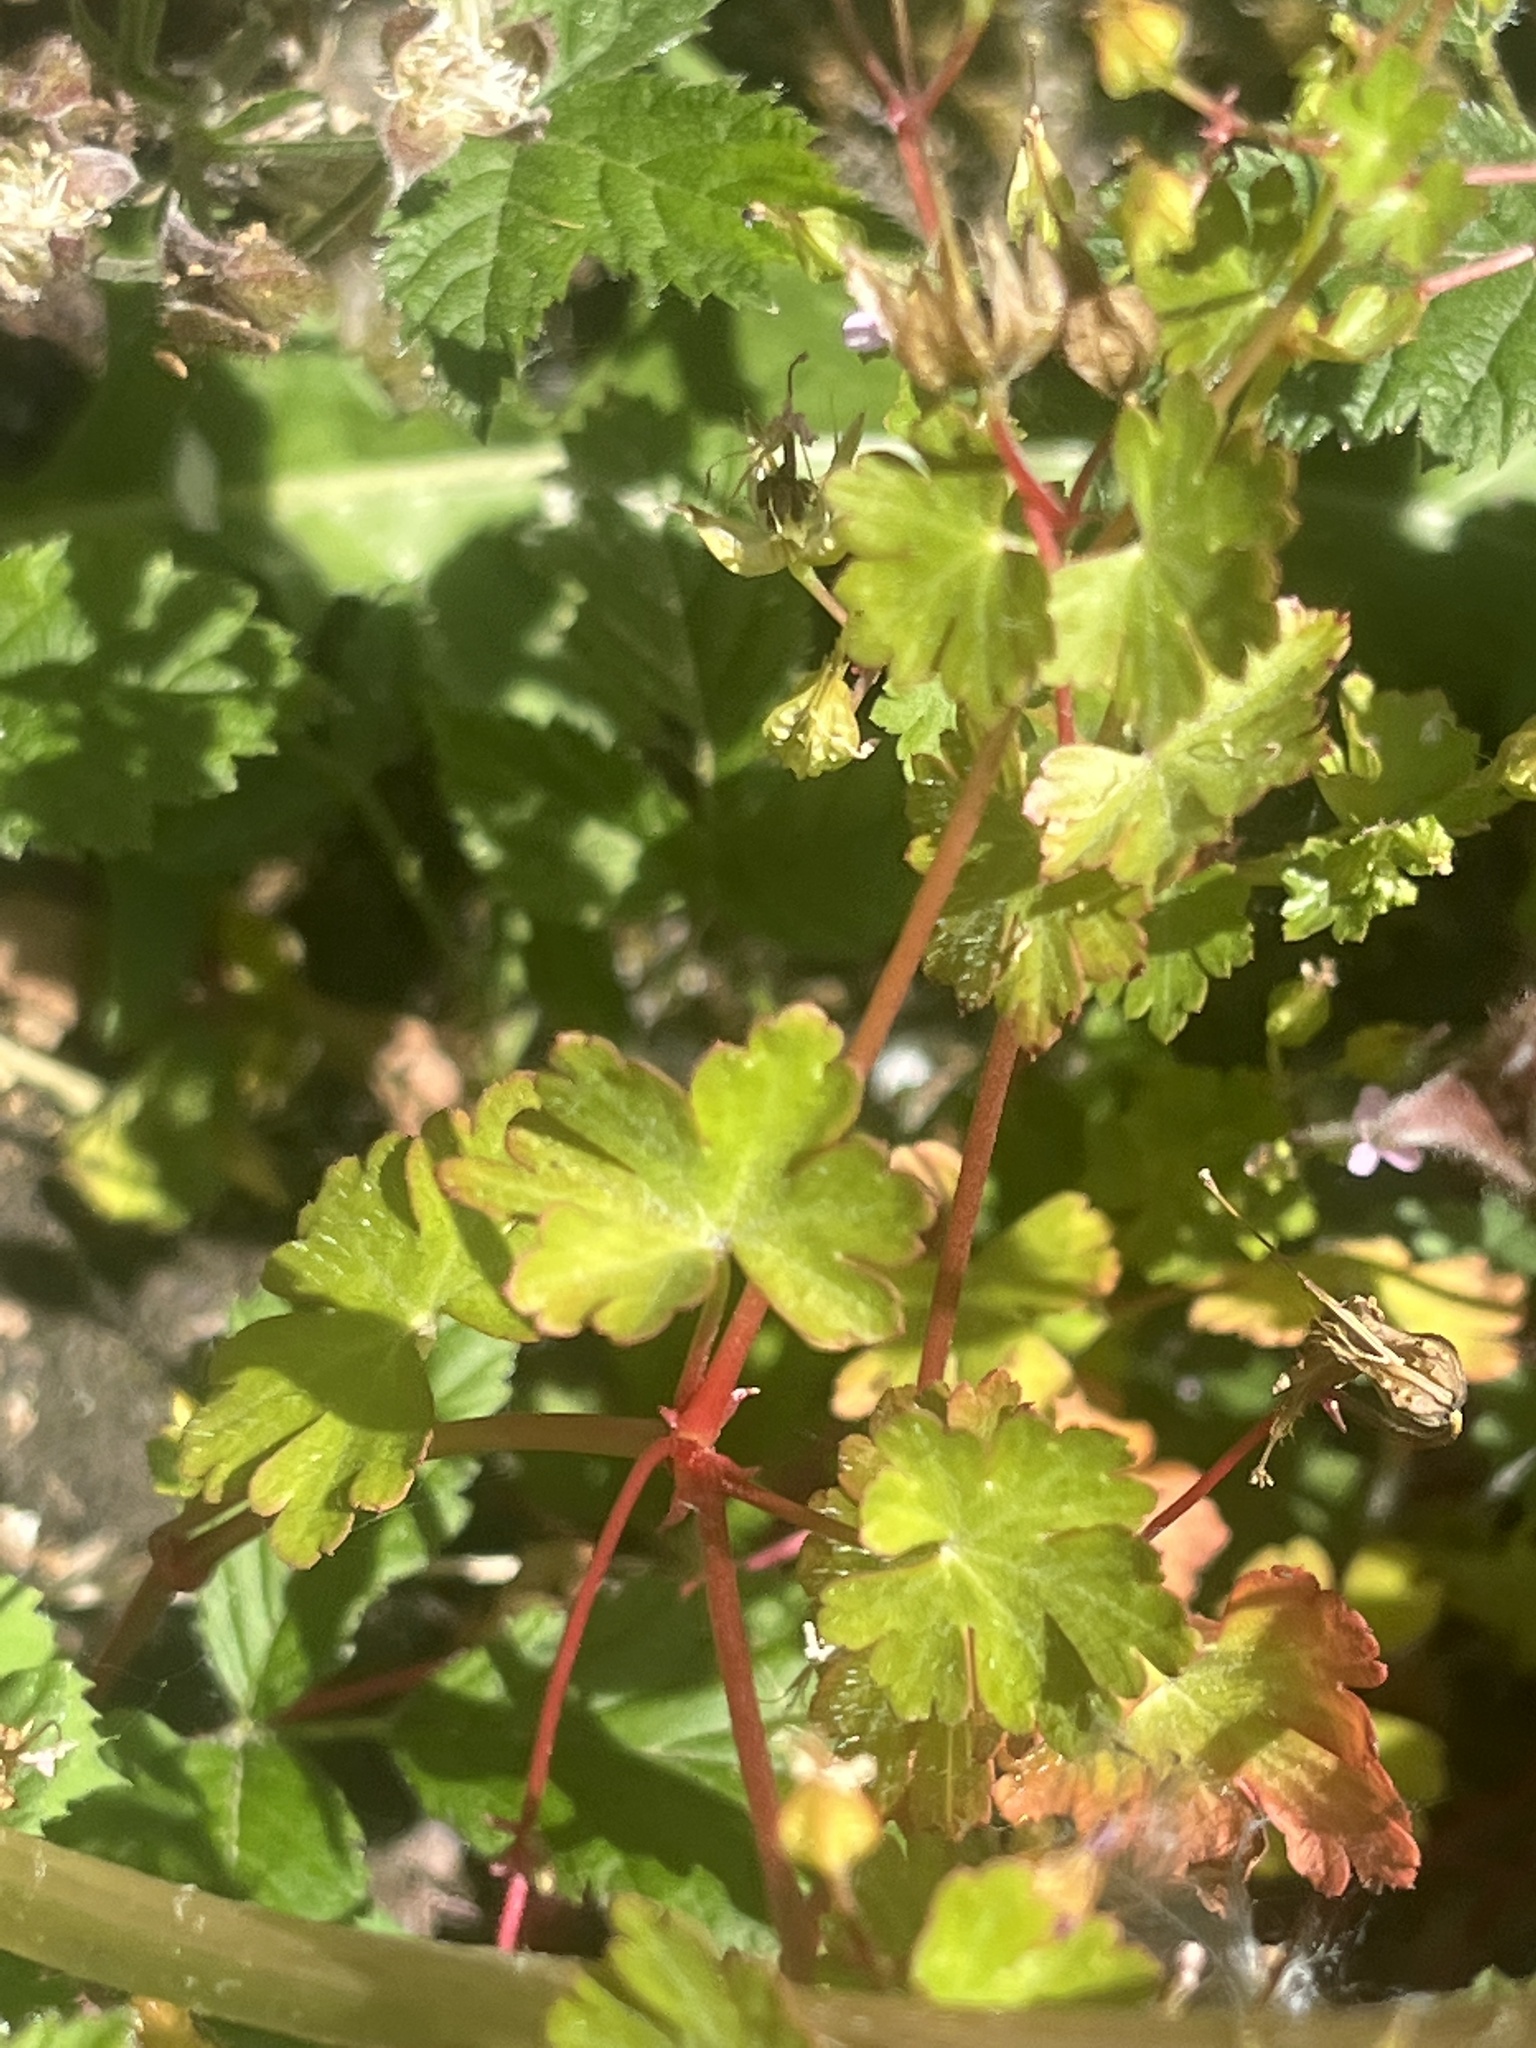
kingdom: Plantae
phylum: Tracheophyta
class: Magnoliopsida
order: Geraniales
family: Geraniaceae
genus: Geranium
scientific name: Geranium lucidum
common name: Shining crane's-bill
